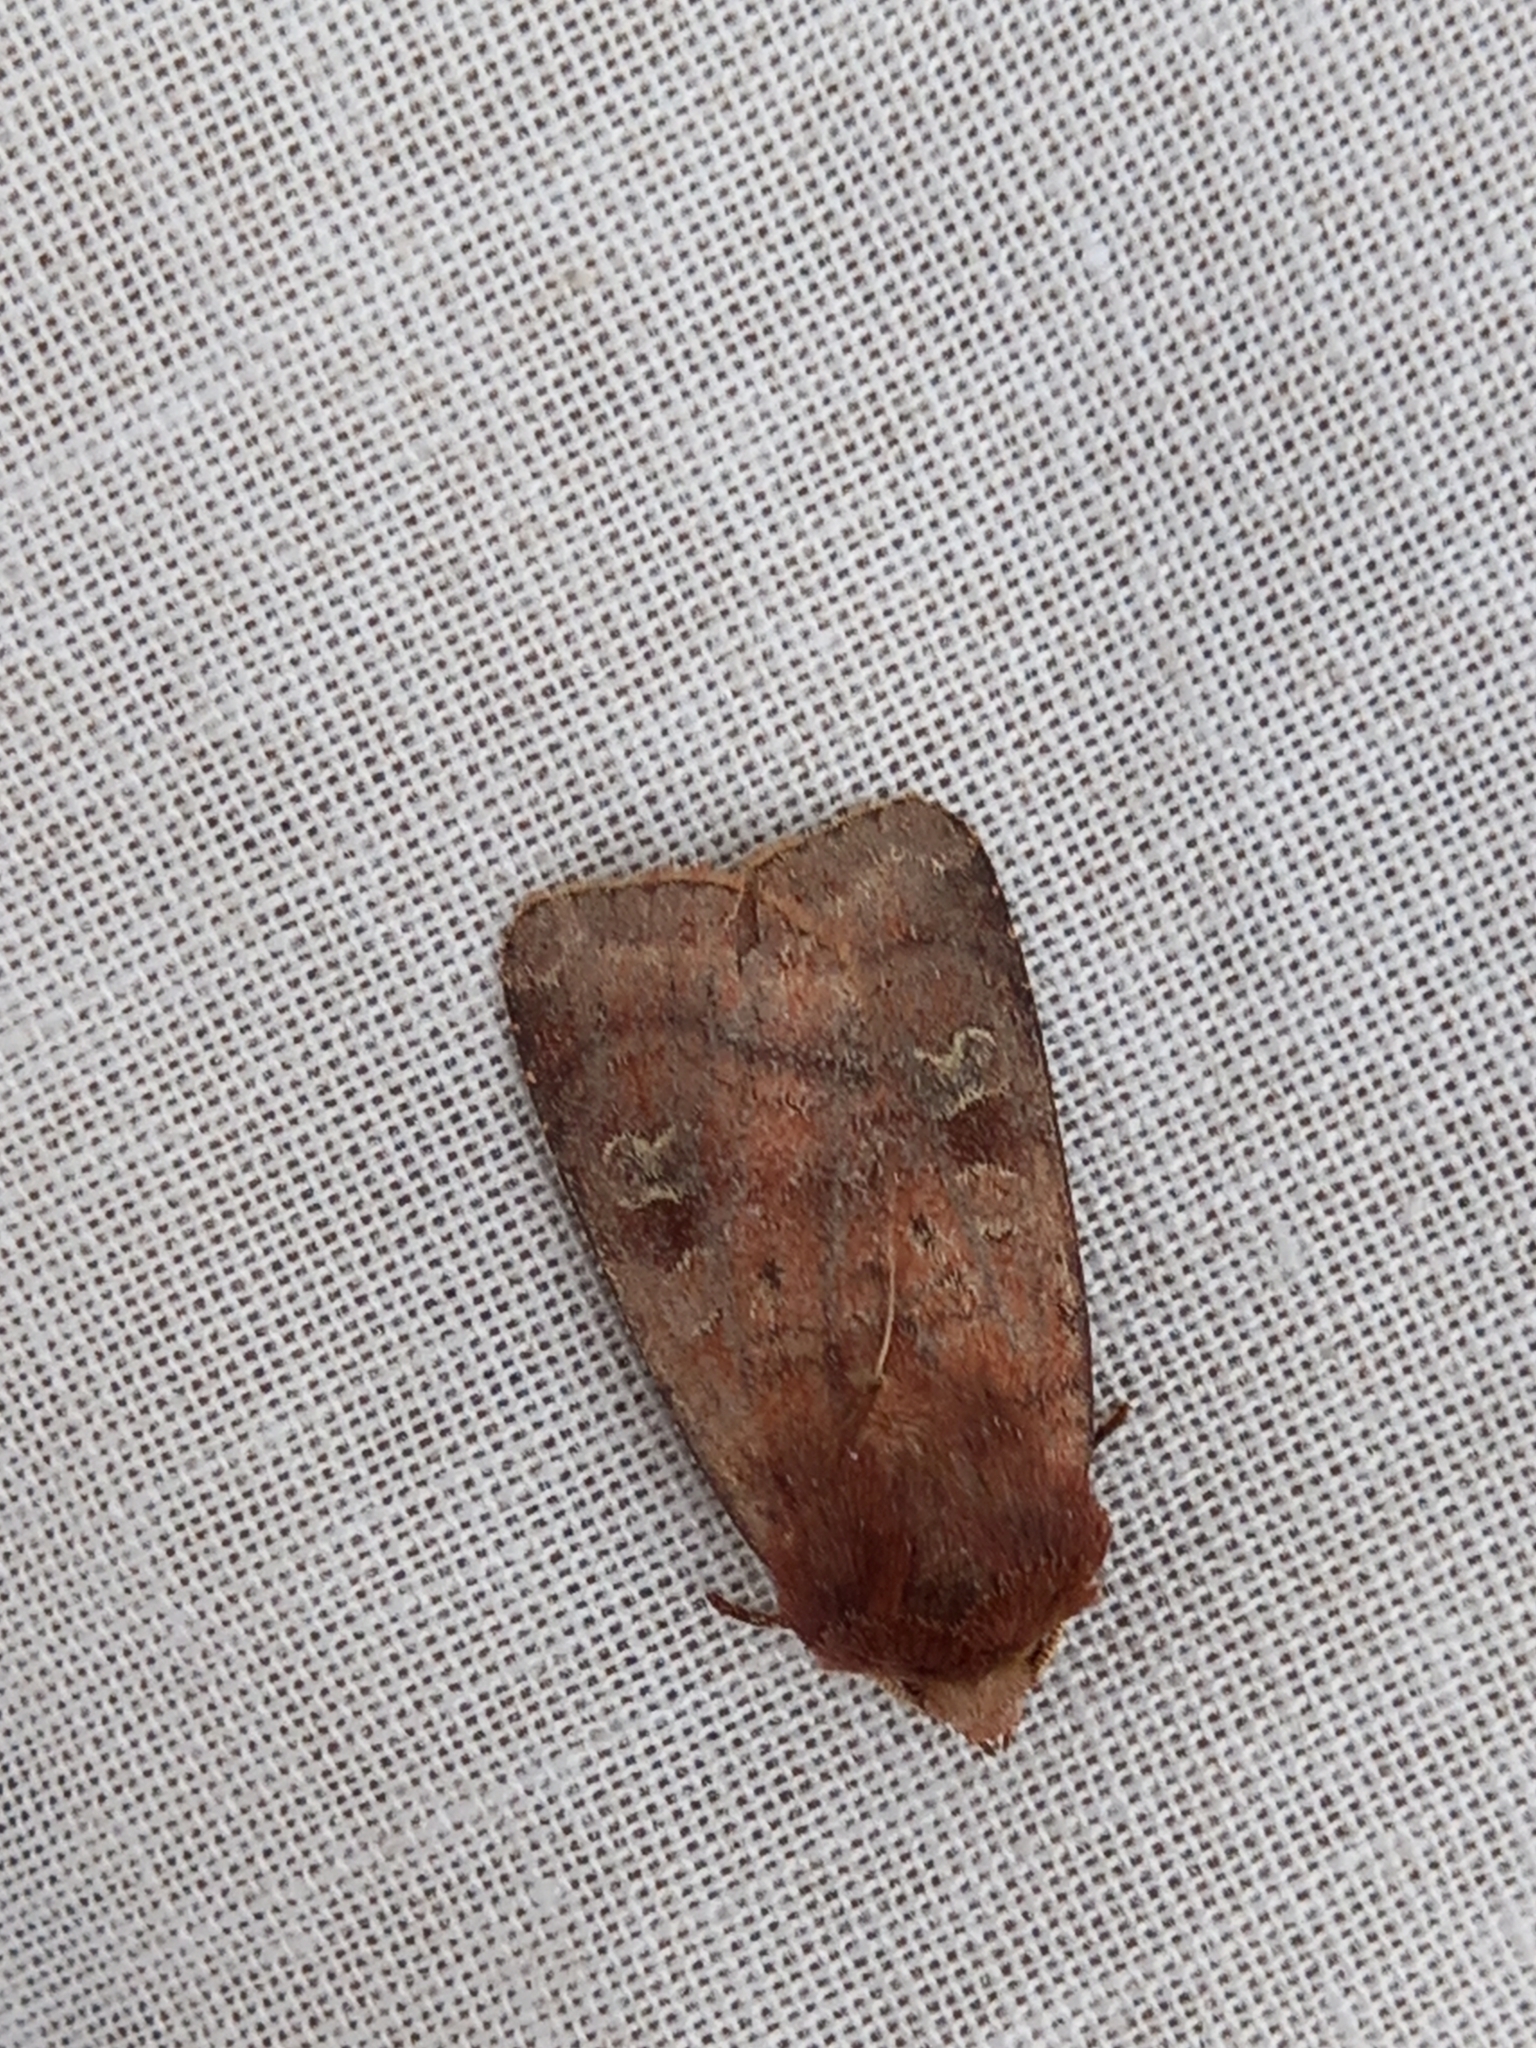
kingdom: Animalia
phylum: Arthropoda
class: Insecta
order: Lepidoptera
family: Noctuidae
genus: Diarsia
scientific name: Diarsia rubi
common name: Small square-spot
